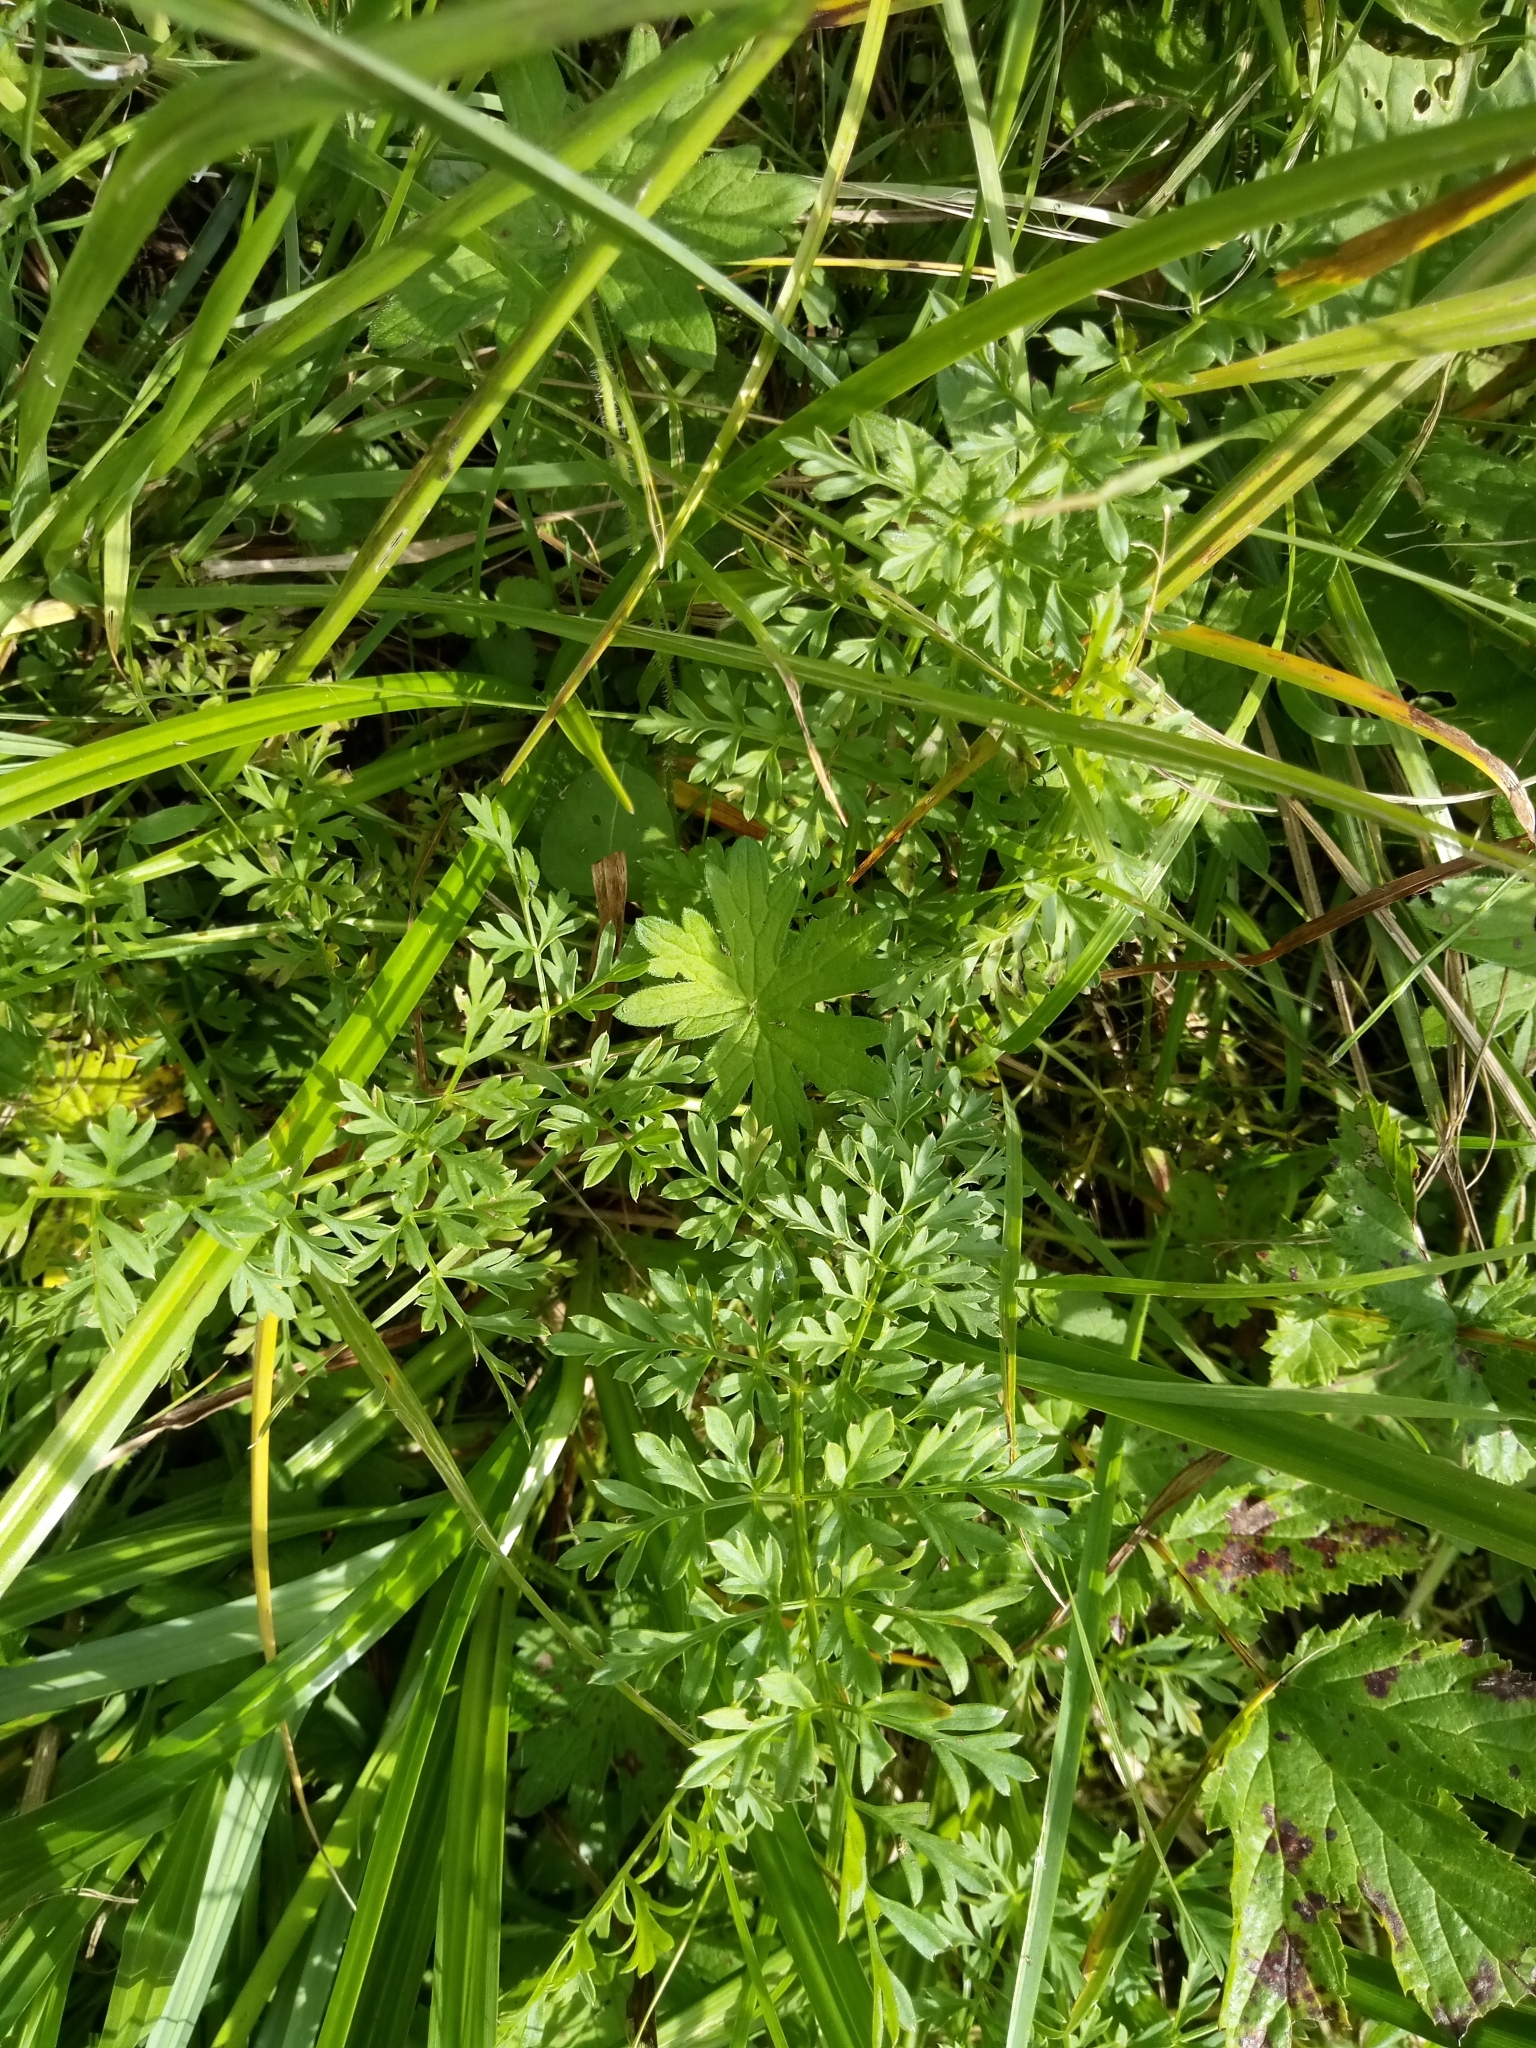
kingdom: Plantae
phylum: Tracheophyta
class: Magnoliopsida
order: Apiales
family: Apiaceae
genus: Selinum
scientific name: Selinum carvifolia
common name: Cambridge milk-parsley
